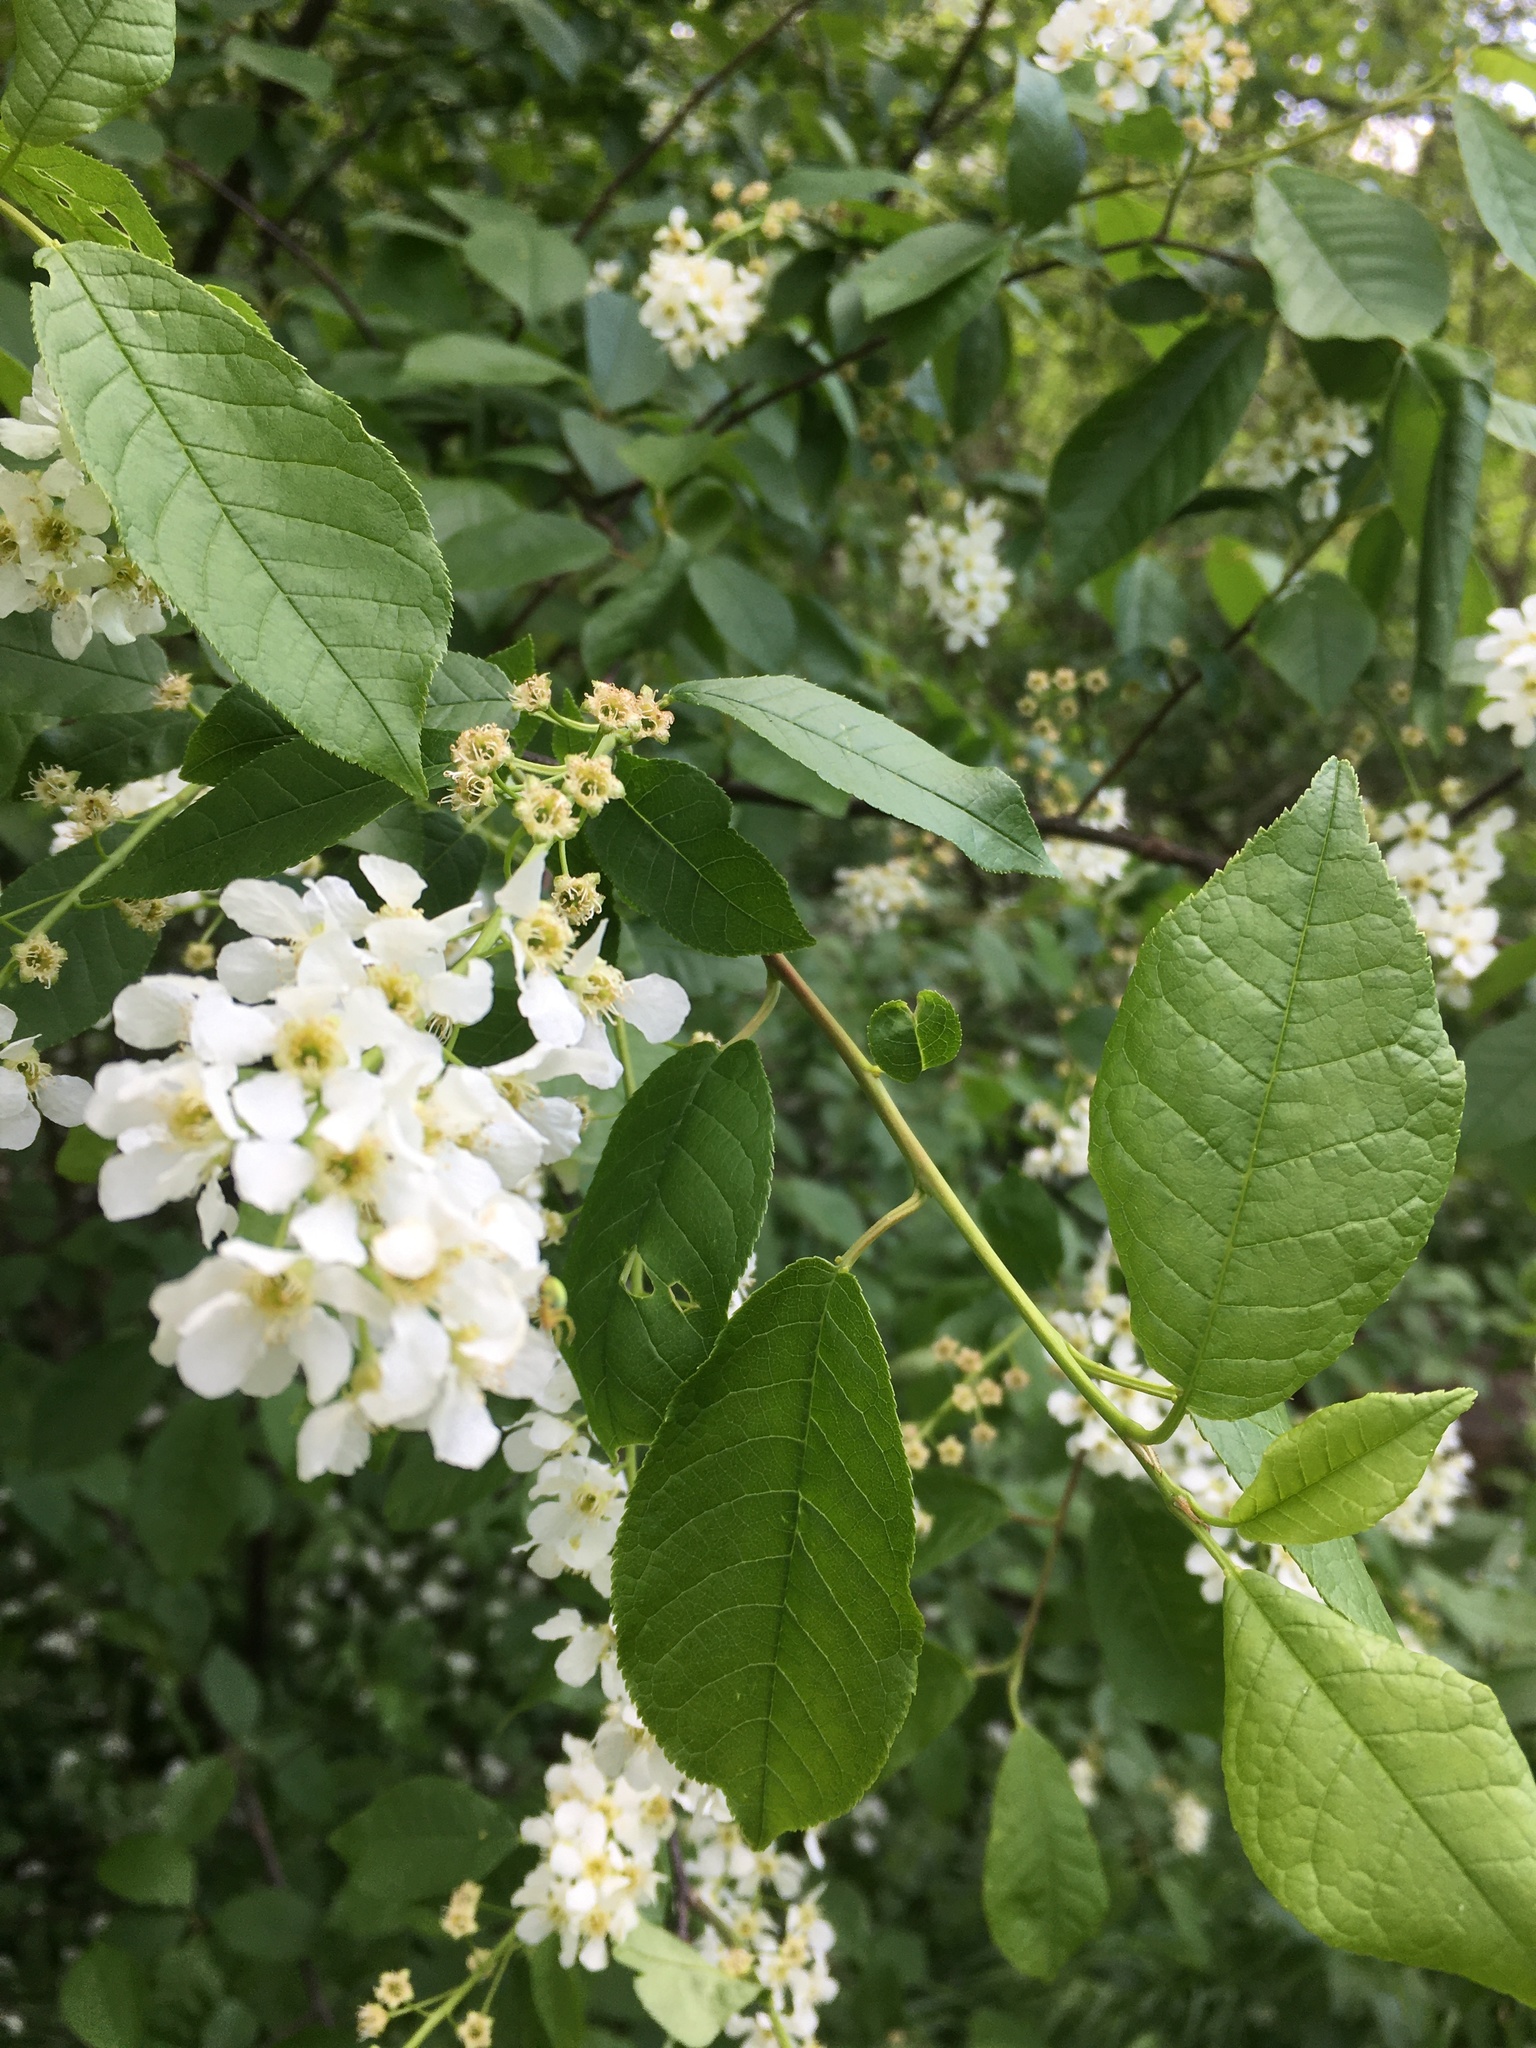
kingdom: Plantae
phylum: Tracheophyta
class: Magnoliopsida
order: Rosales
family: Rosaceae
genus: Prunus
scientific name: Prunus padus
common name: Bird cherry
